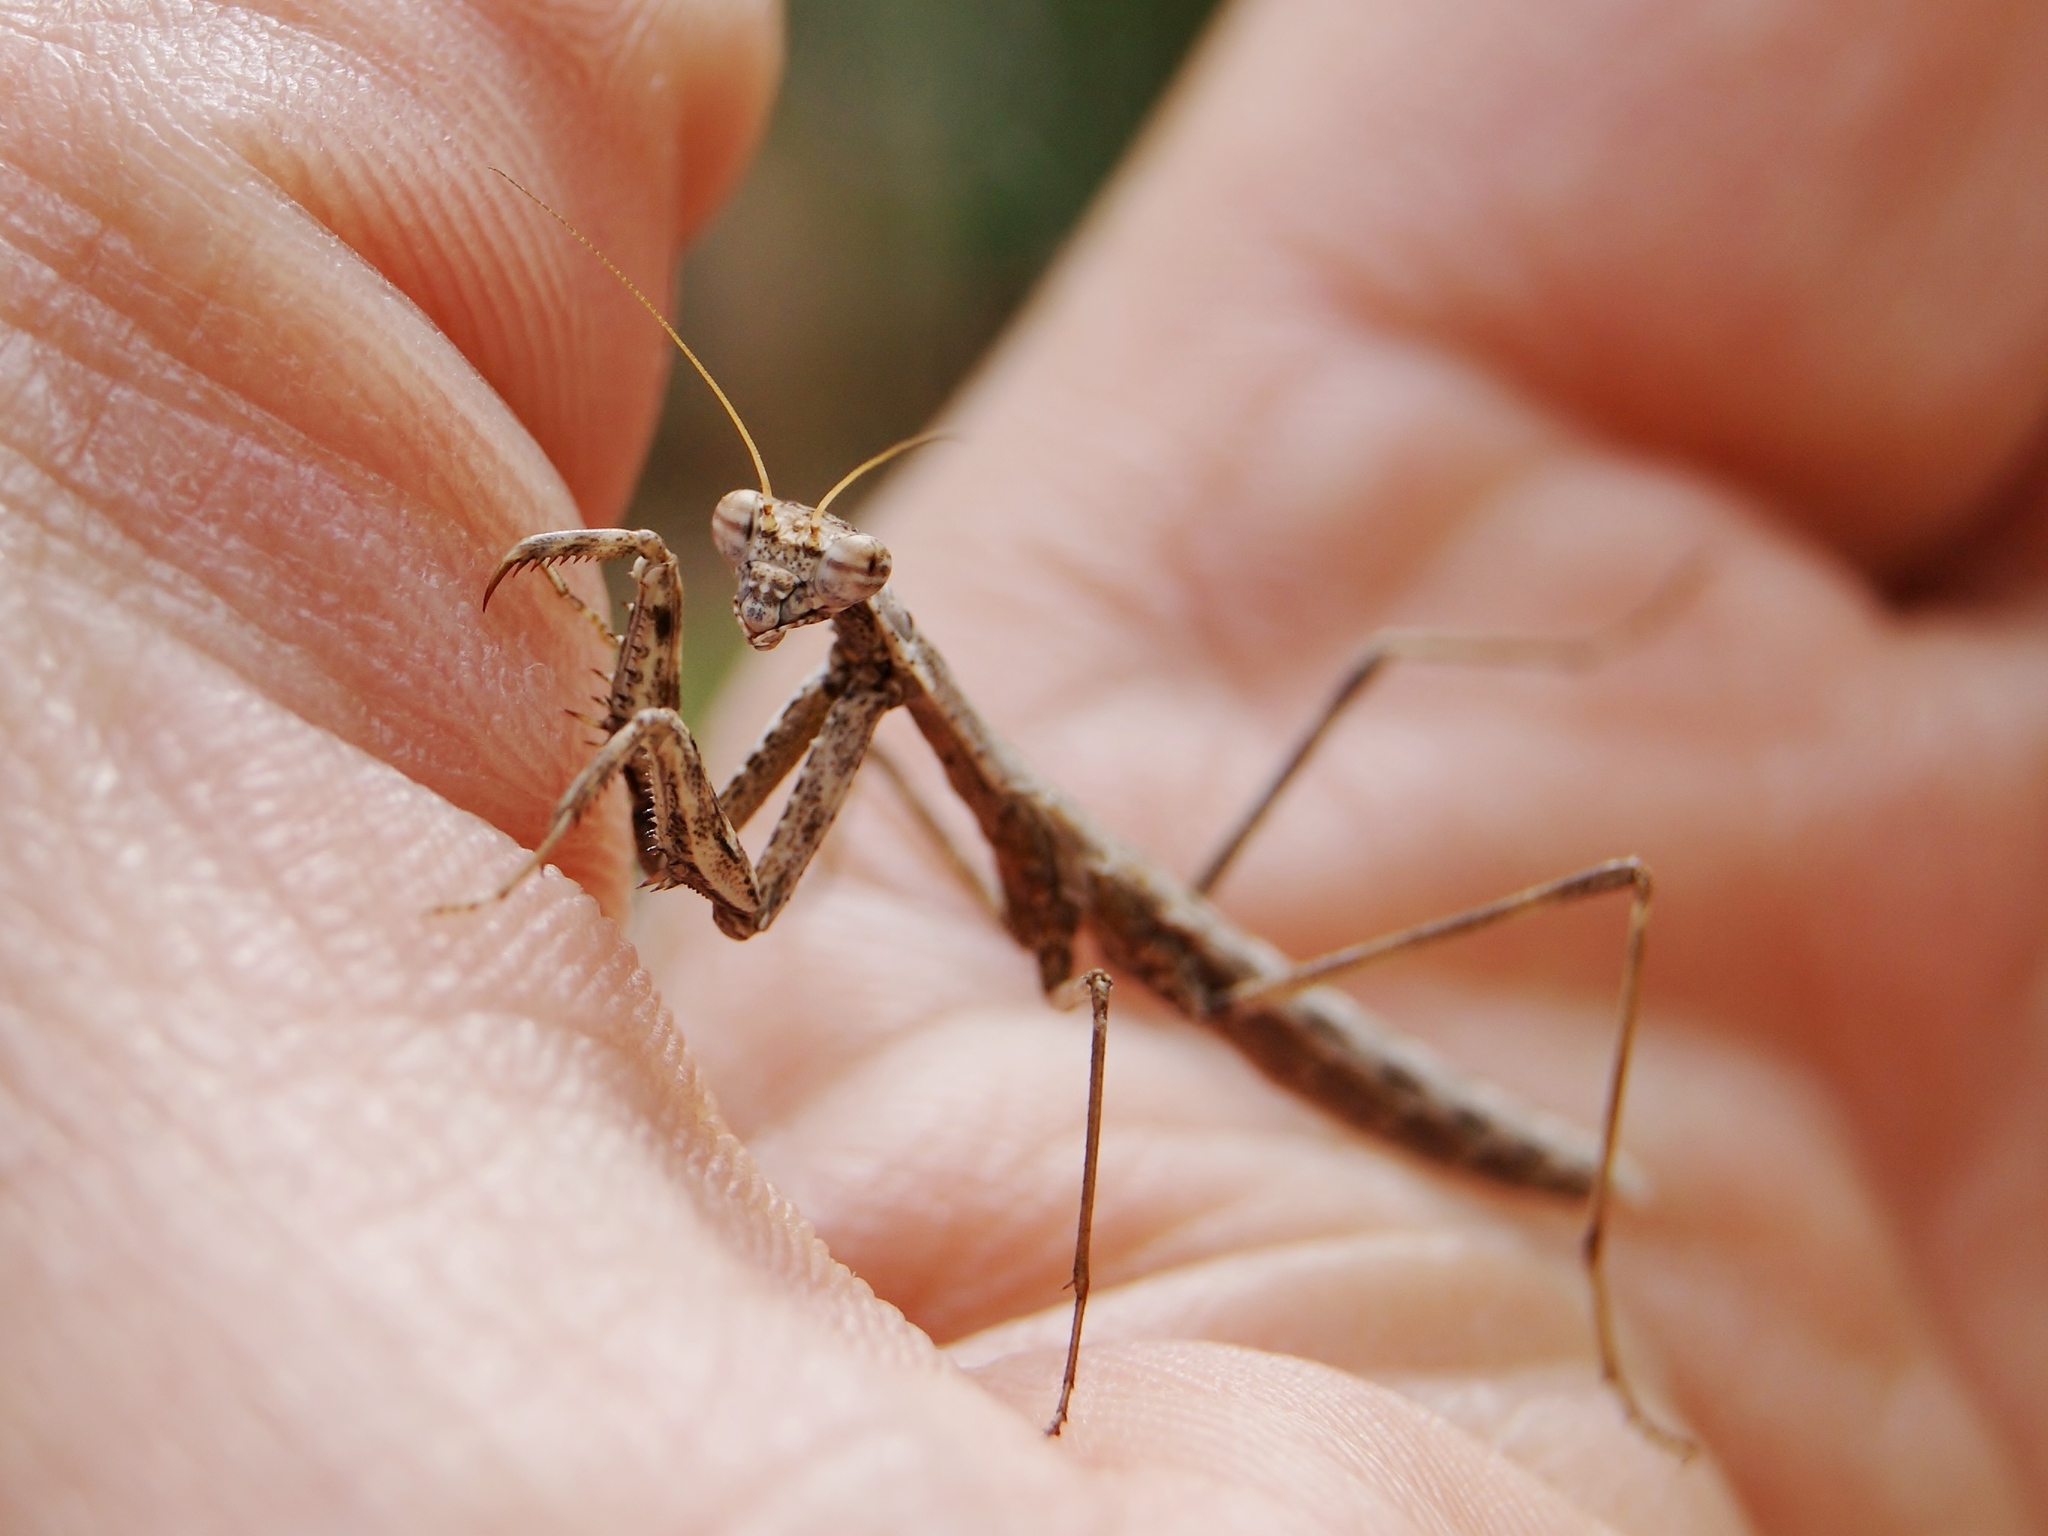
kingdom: Animalia
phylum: Arthropoda
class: Insecta
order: Mantodea
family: Rivetinidae
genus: Rivetina
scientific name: Rivetina baetica
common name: Baetic ground mantis
